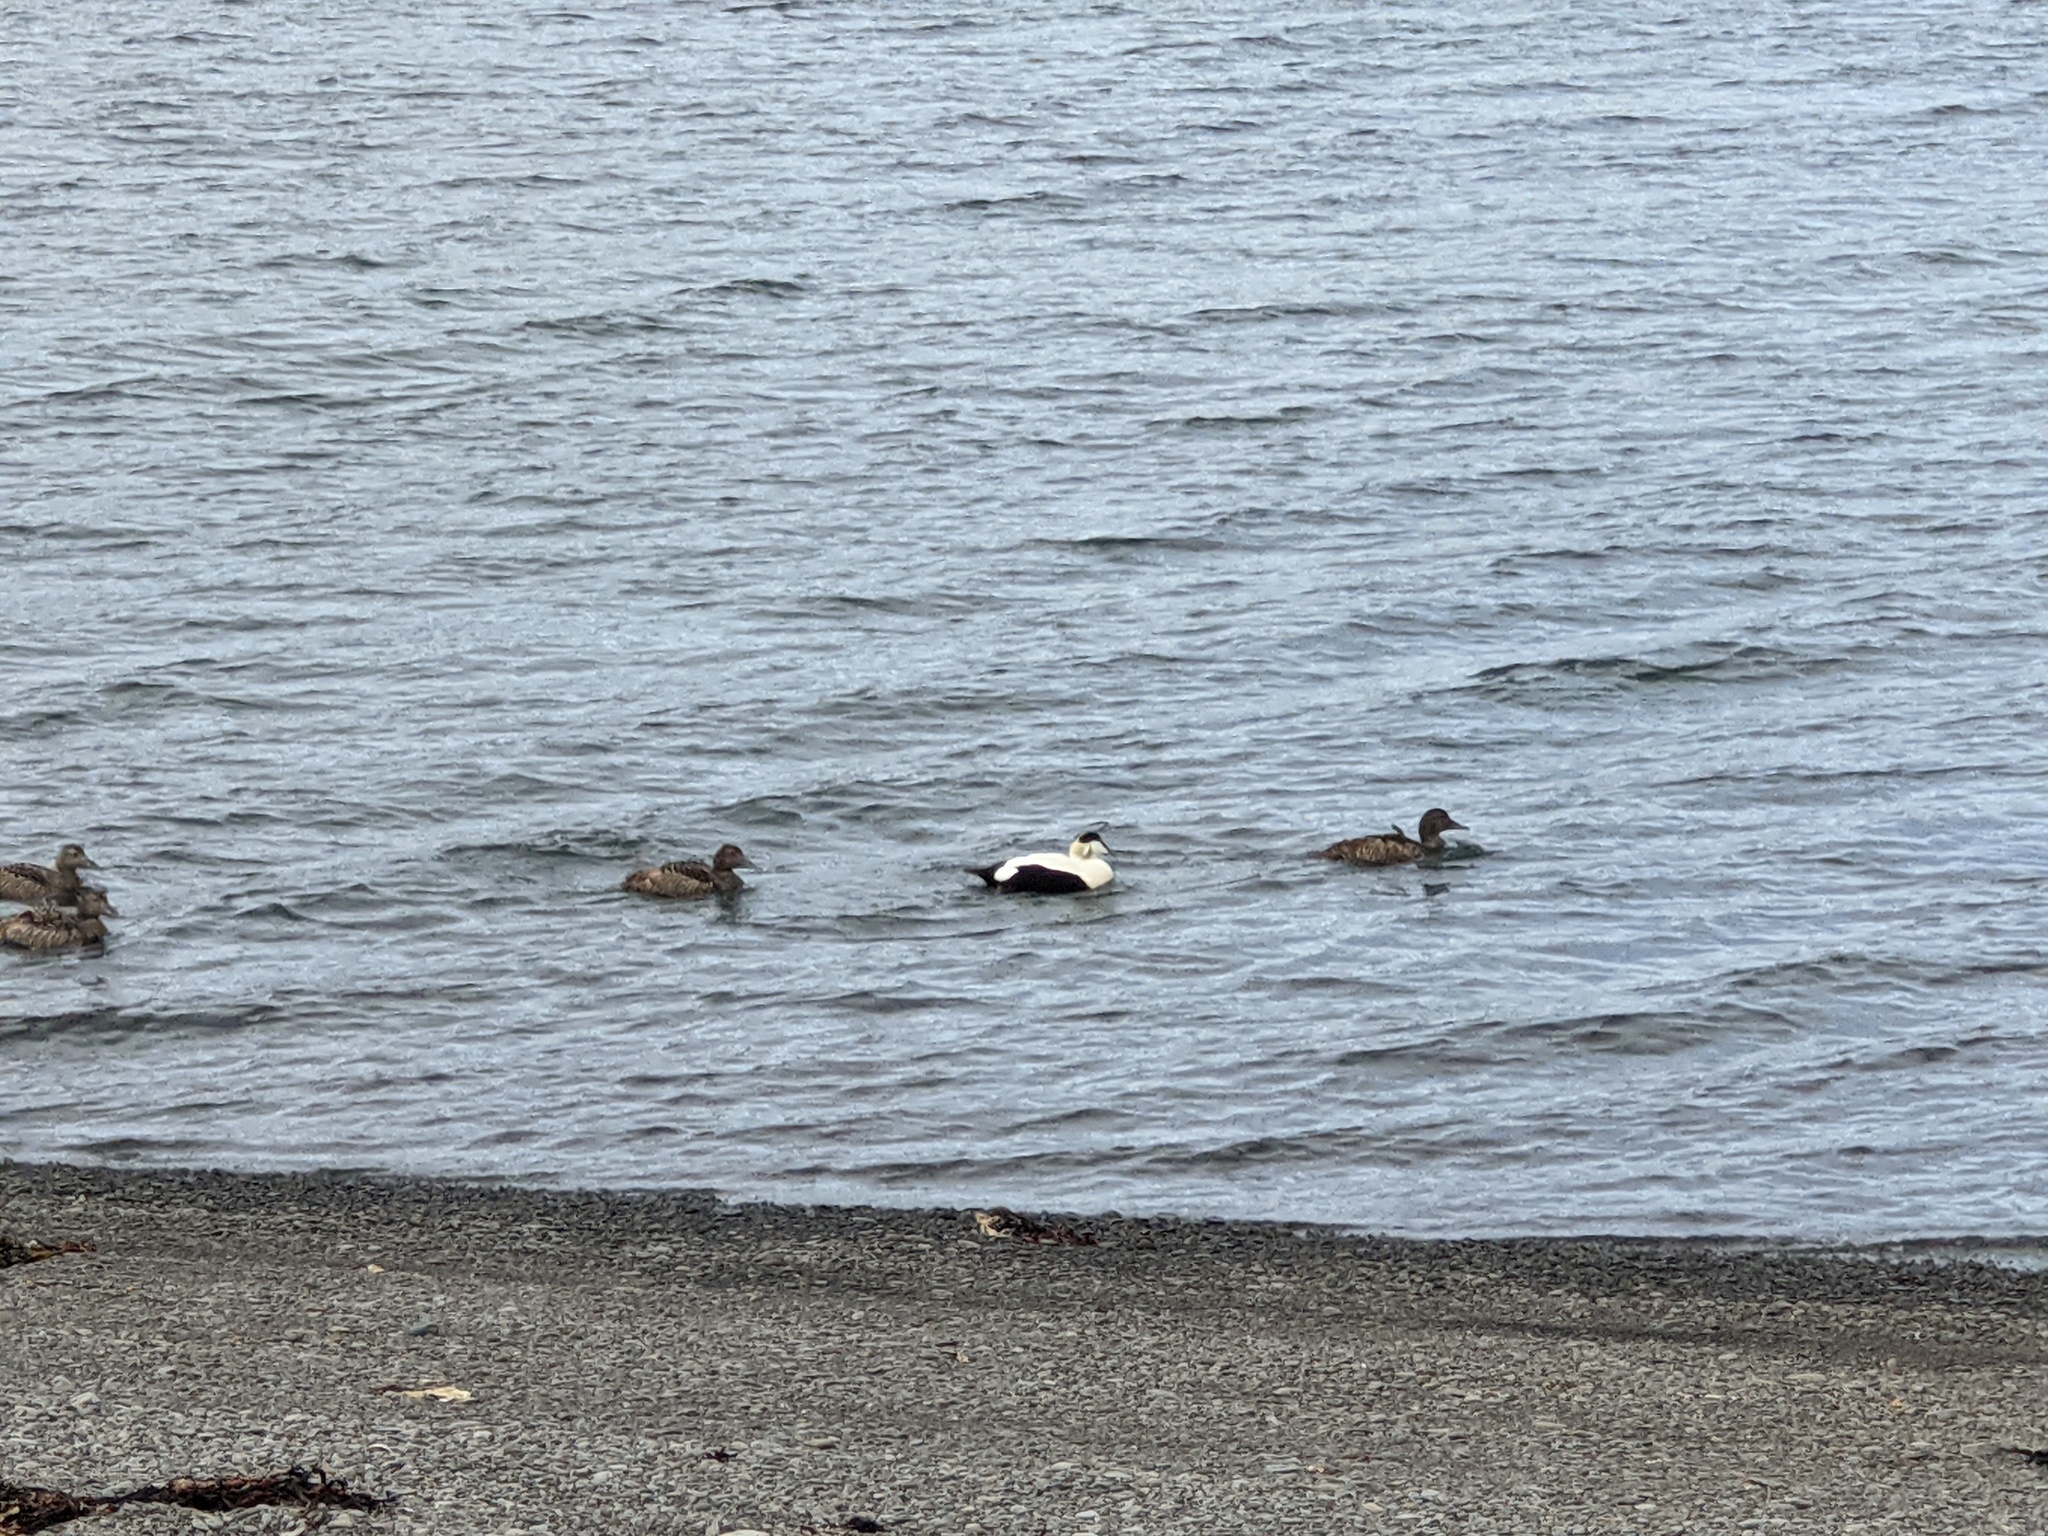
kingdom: Animalia
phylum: Chordata
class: Aves
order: Anseriformes
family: Anatidae
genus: Somateria
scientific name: Somateria mollissima
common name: Common eider
